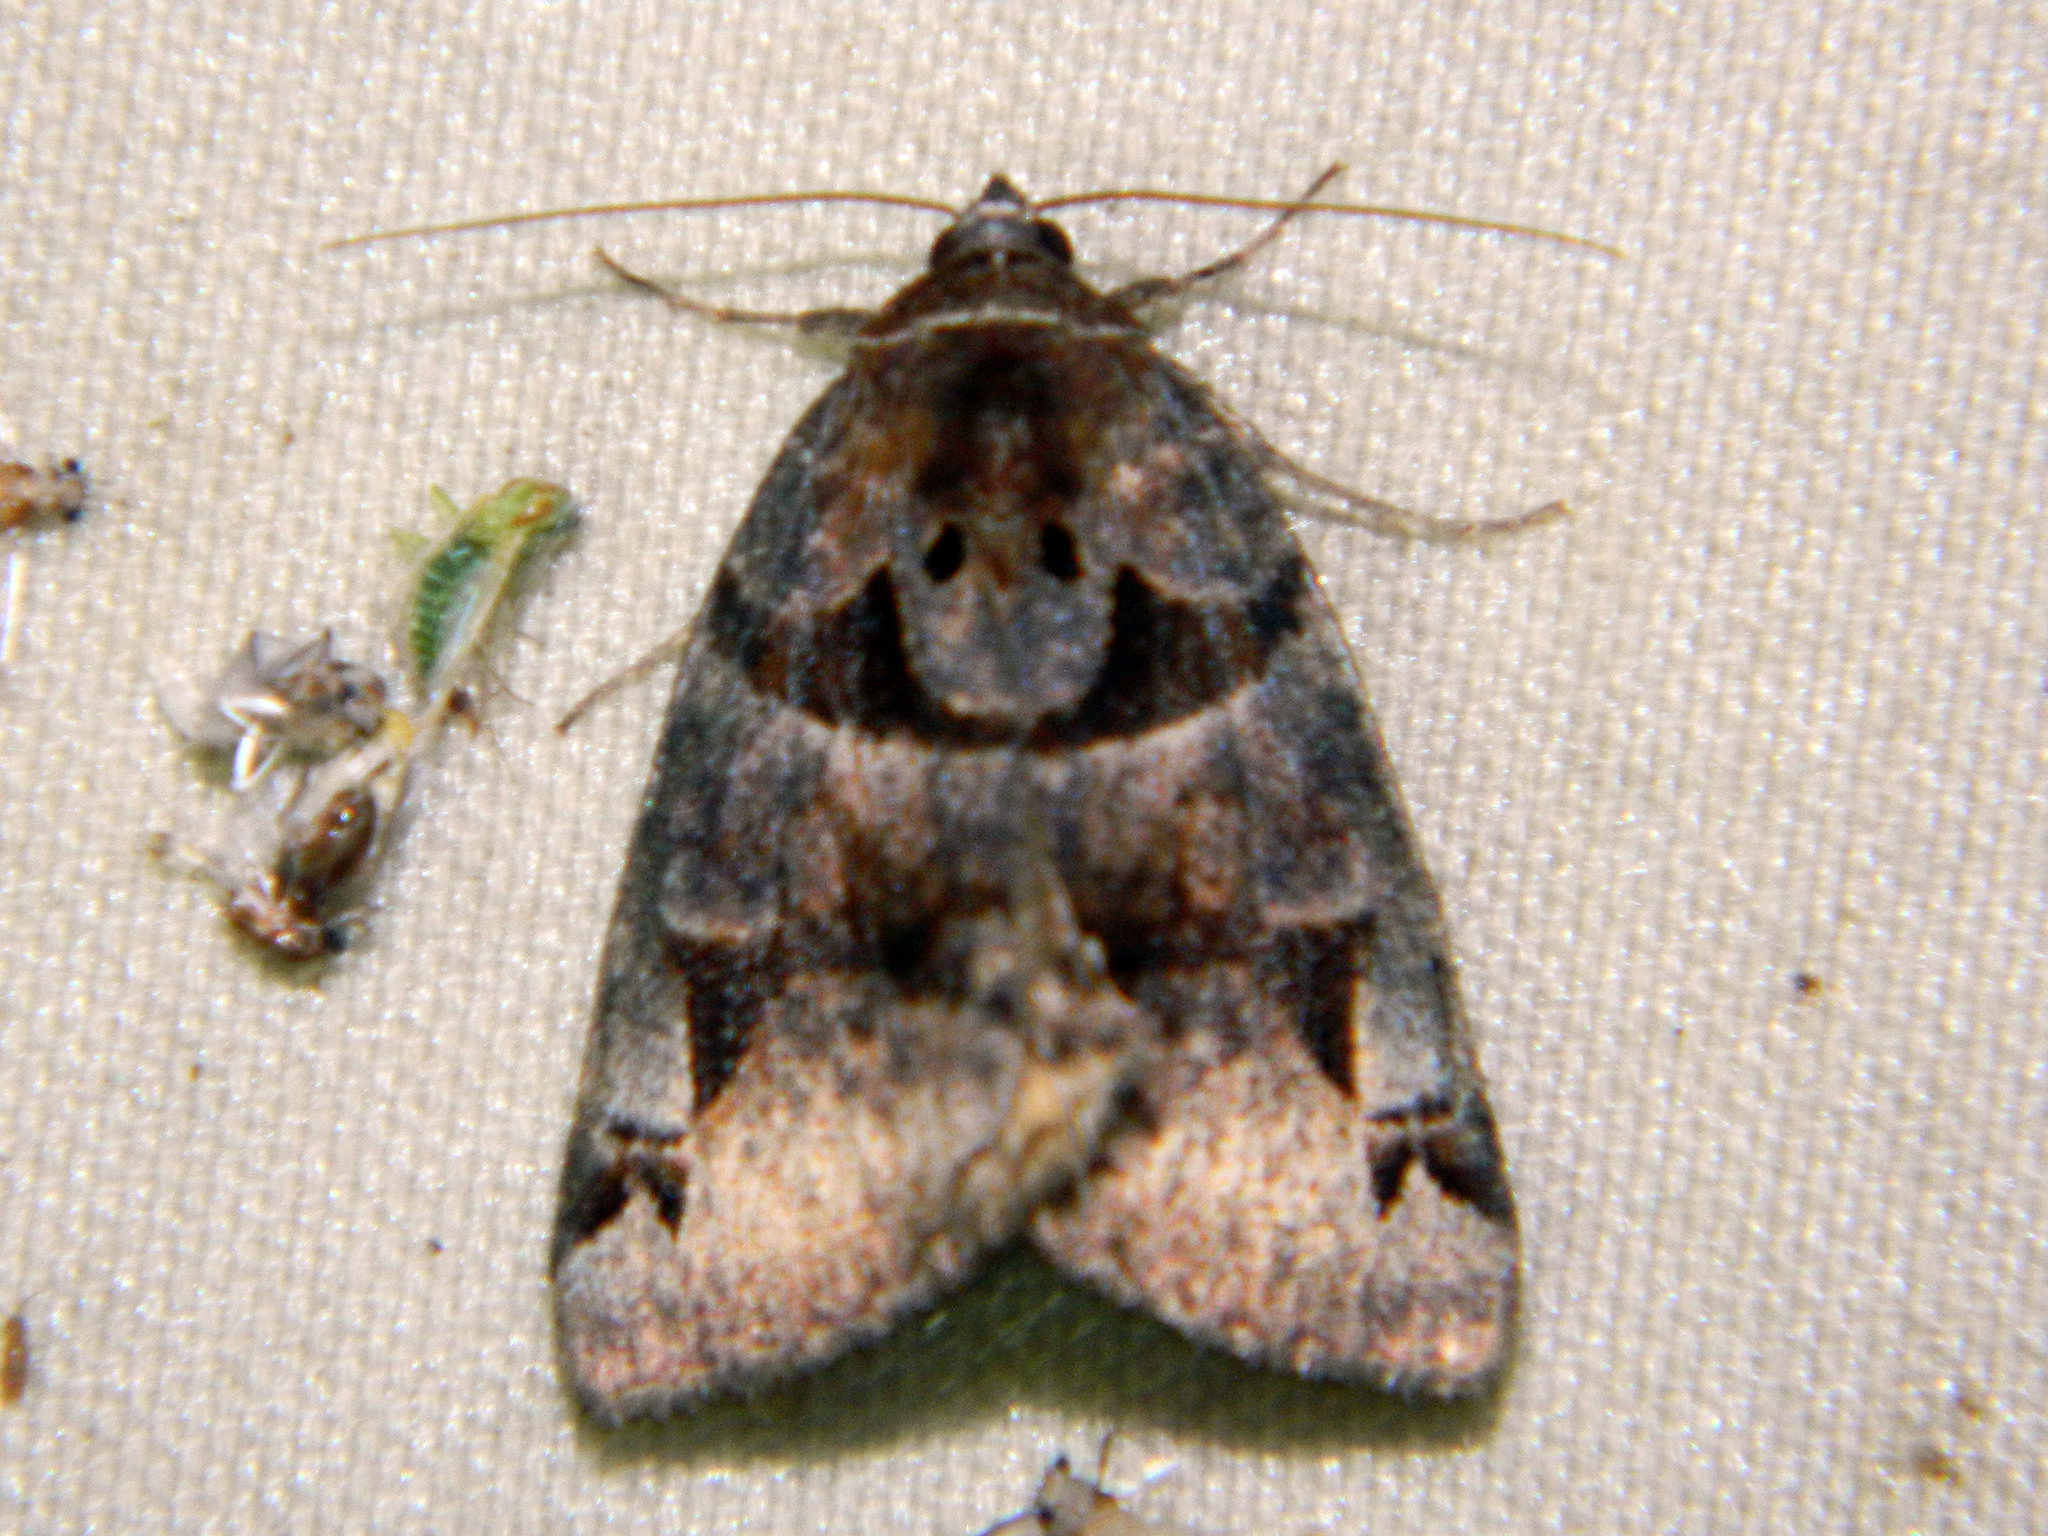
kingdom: Animalia
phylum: Arthropoda
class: Insecta
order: Lepidoptera
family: Erebidae
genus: Euclidia
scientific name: Euclidia cuspidea
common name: Toothed somberwing
